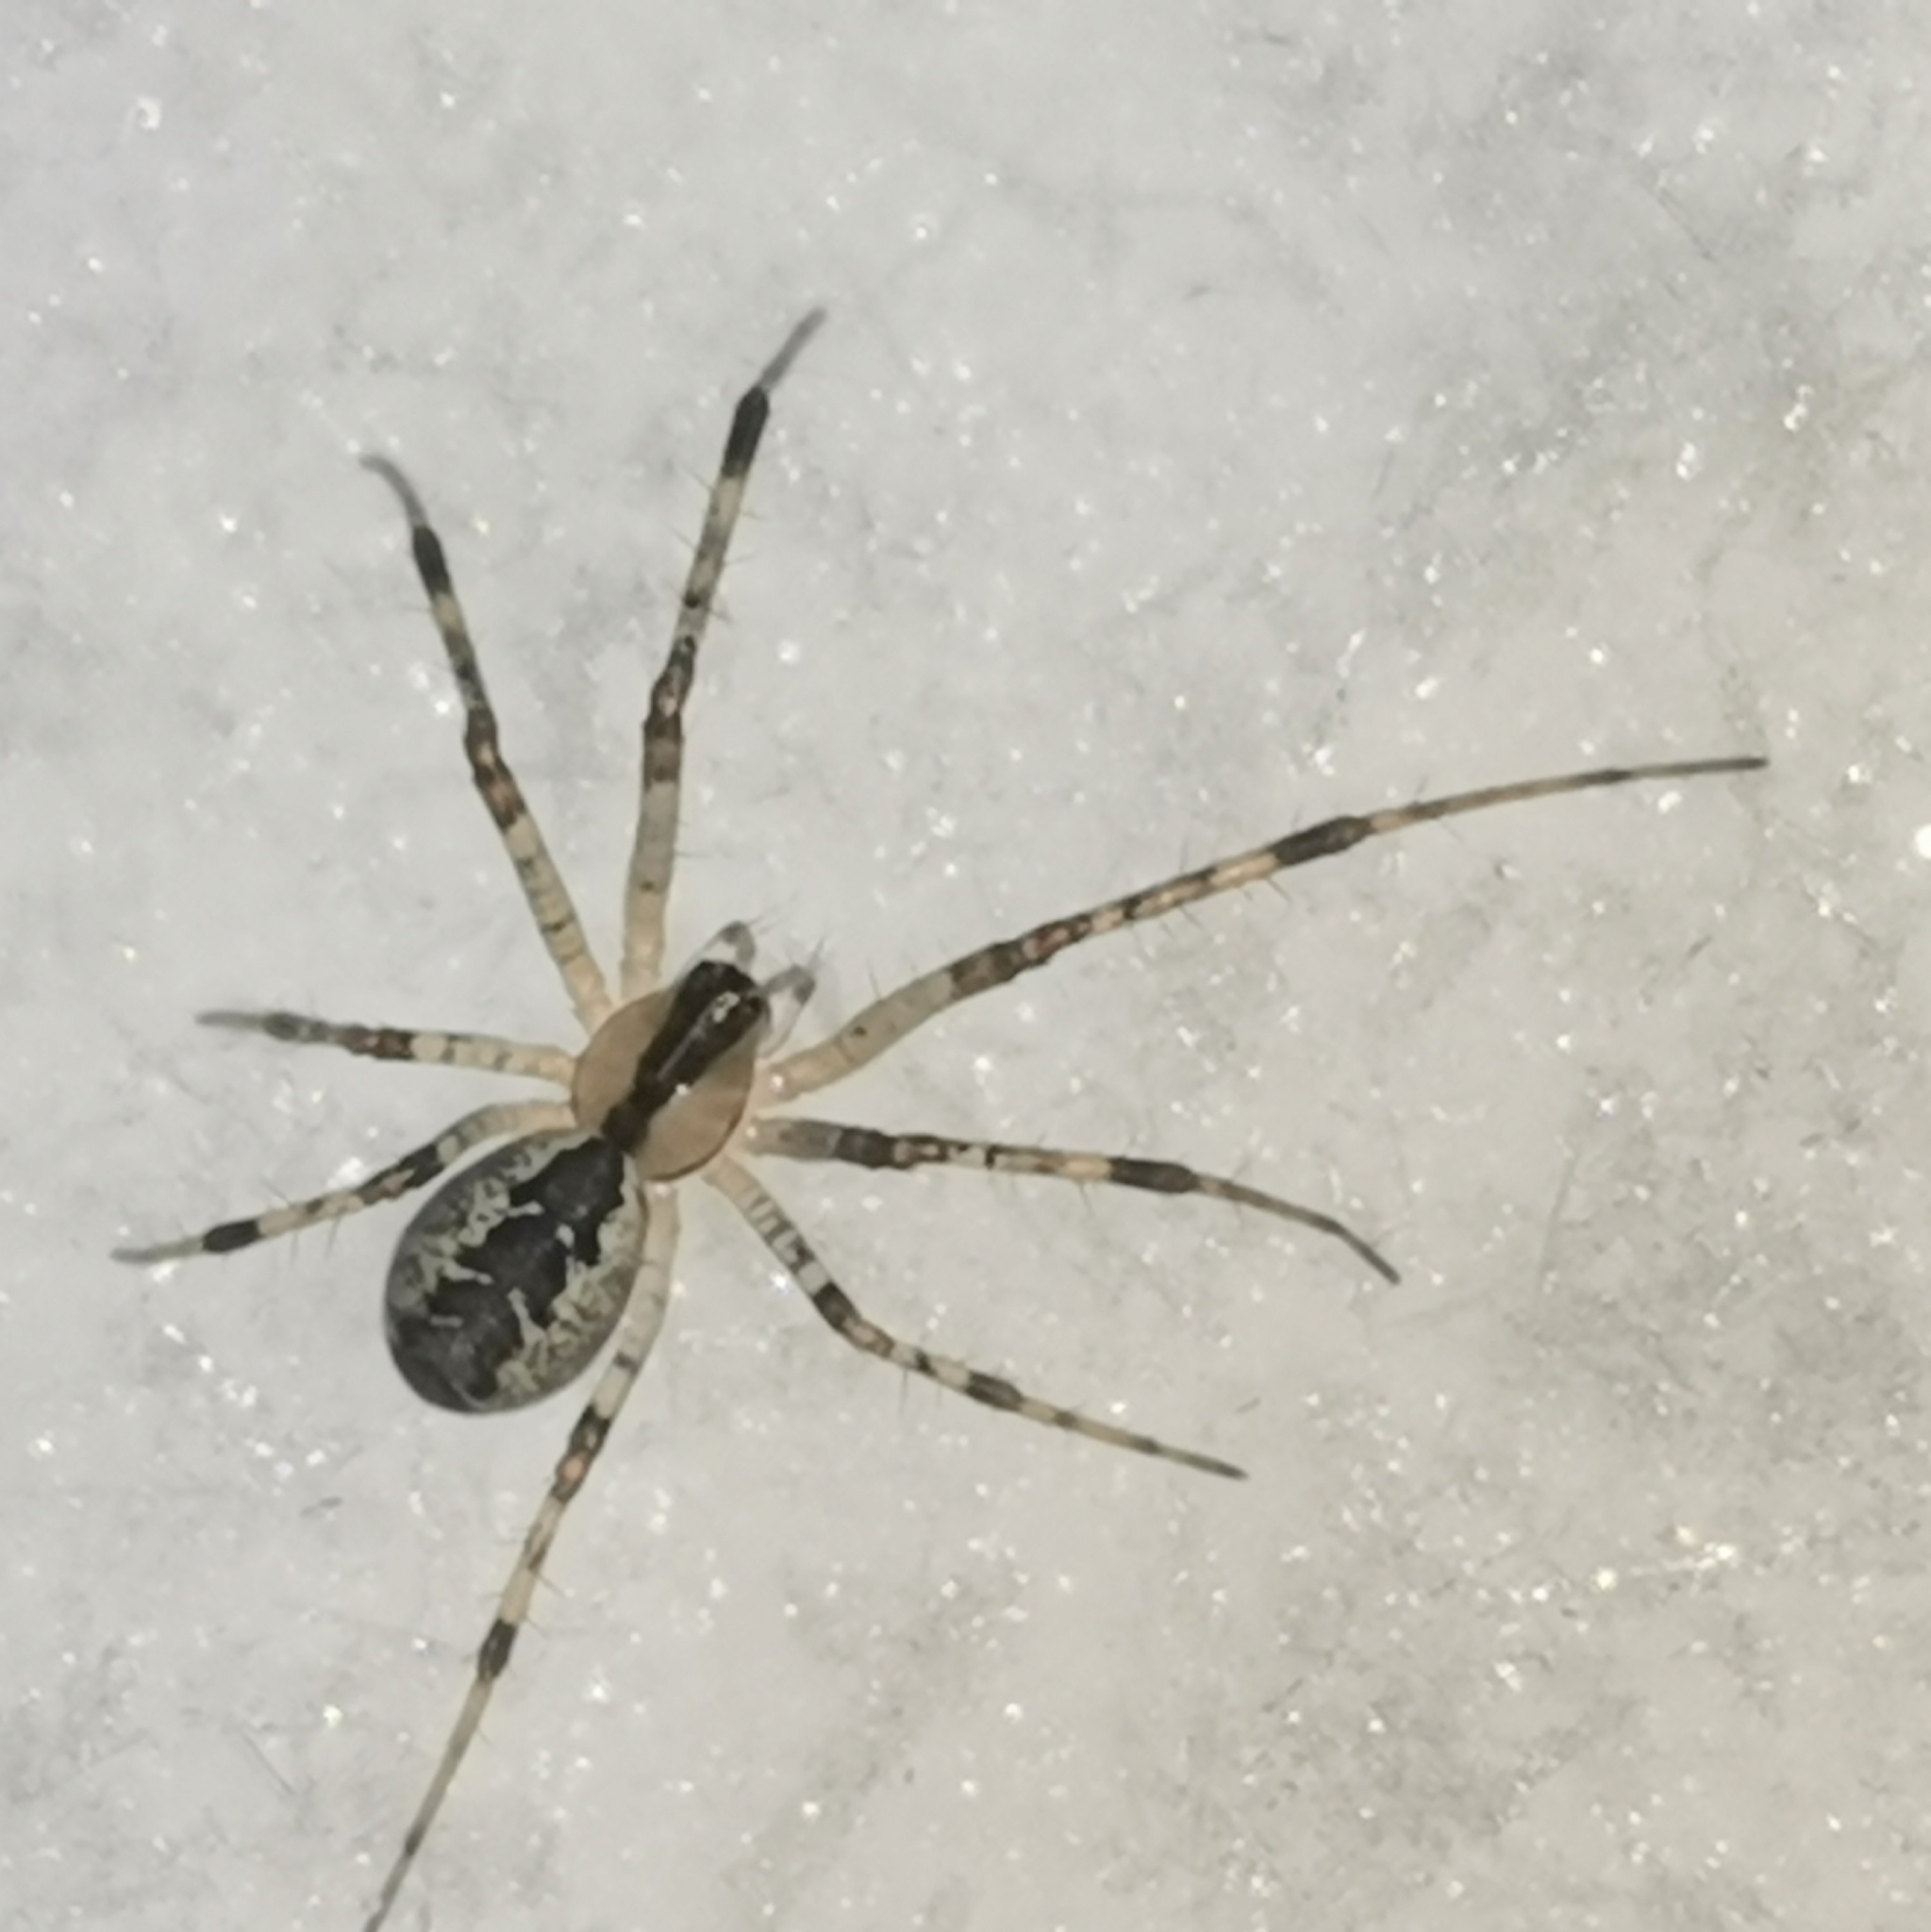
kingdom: Animalia
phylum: Arthropoda
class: Arachnida
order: Araneae
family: Linyphiidae
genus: Pityohyphantes
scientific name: Pityohyphantes phrygianus
